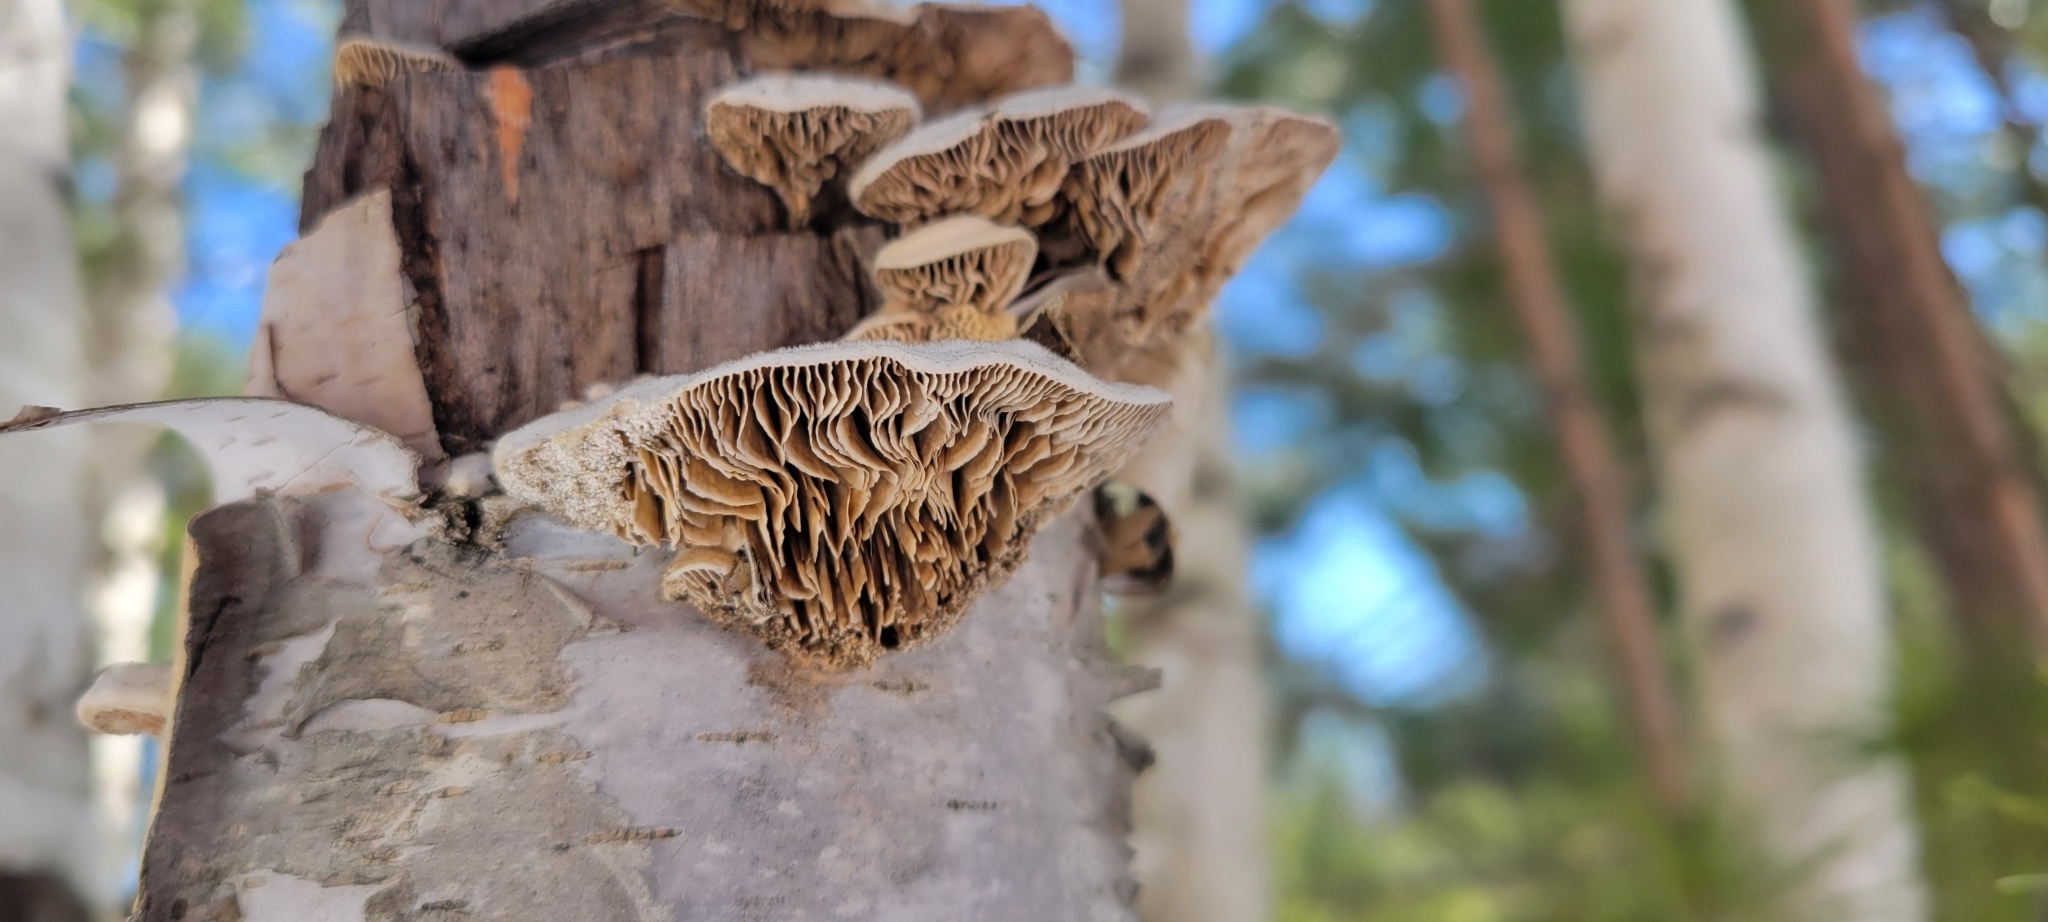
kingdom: Fungi
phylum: Basidiomycota
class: Agaricomycetes
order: Polyporales
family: Polyporaceae
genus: Lenzites
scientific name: Lenzites betulinus
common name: Birch mazegill
